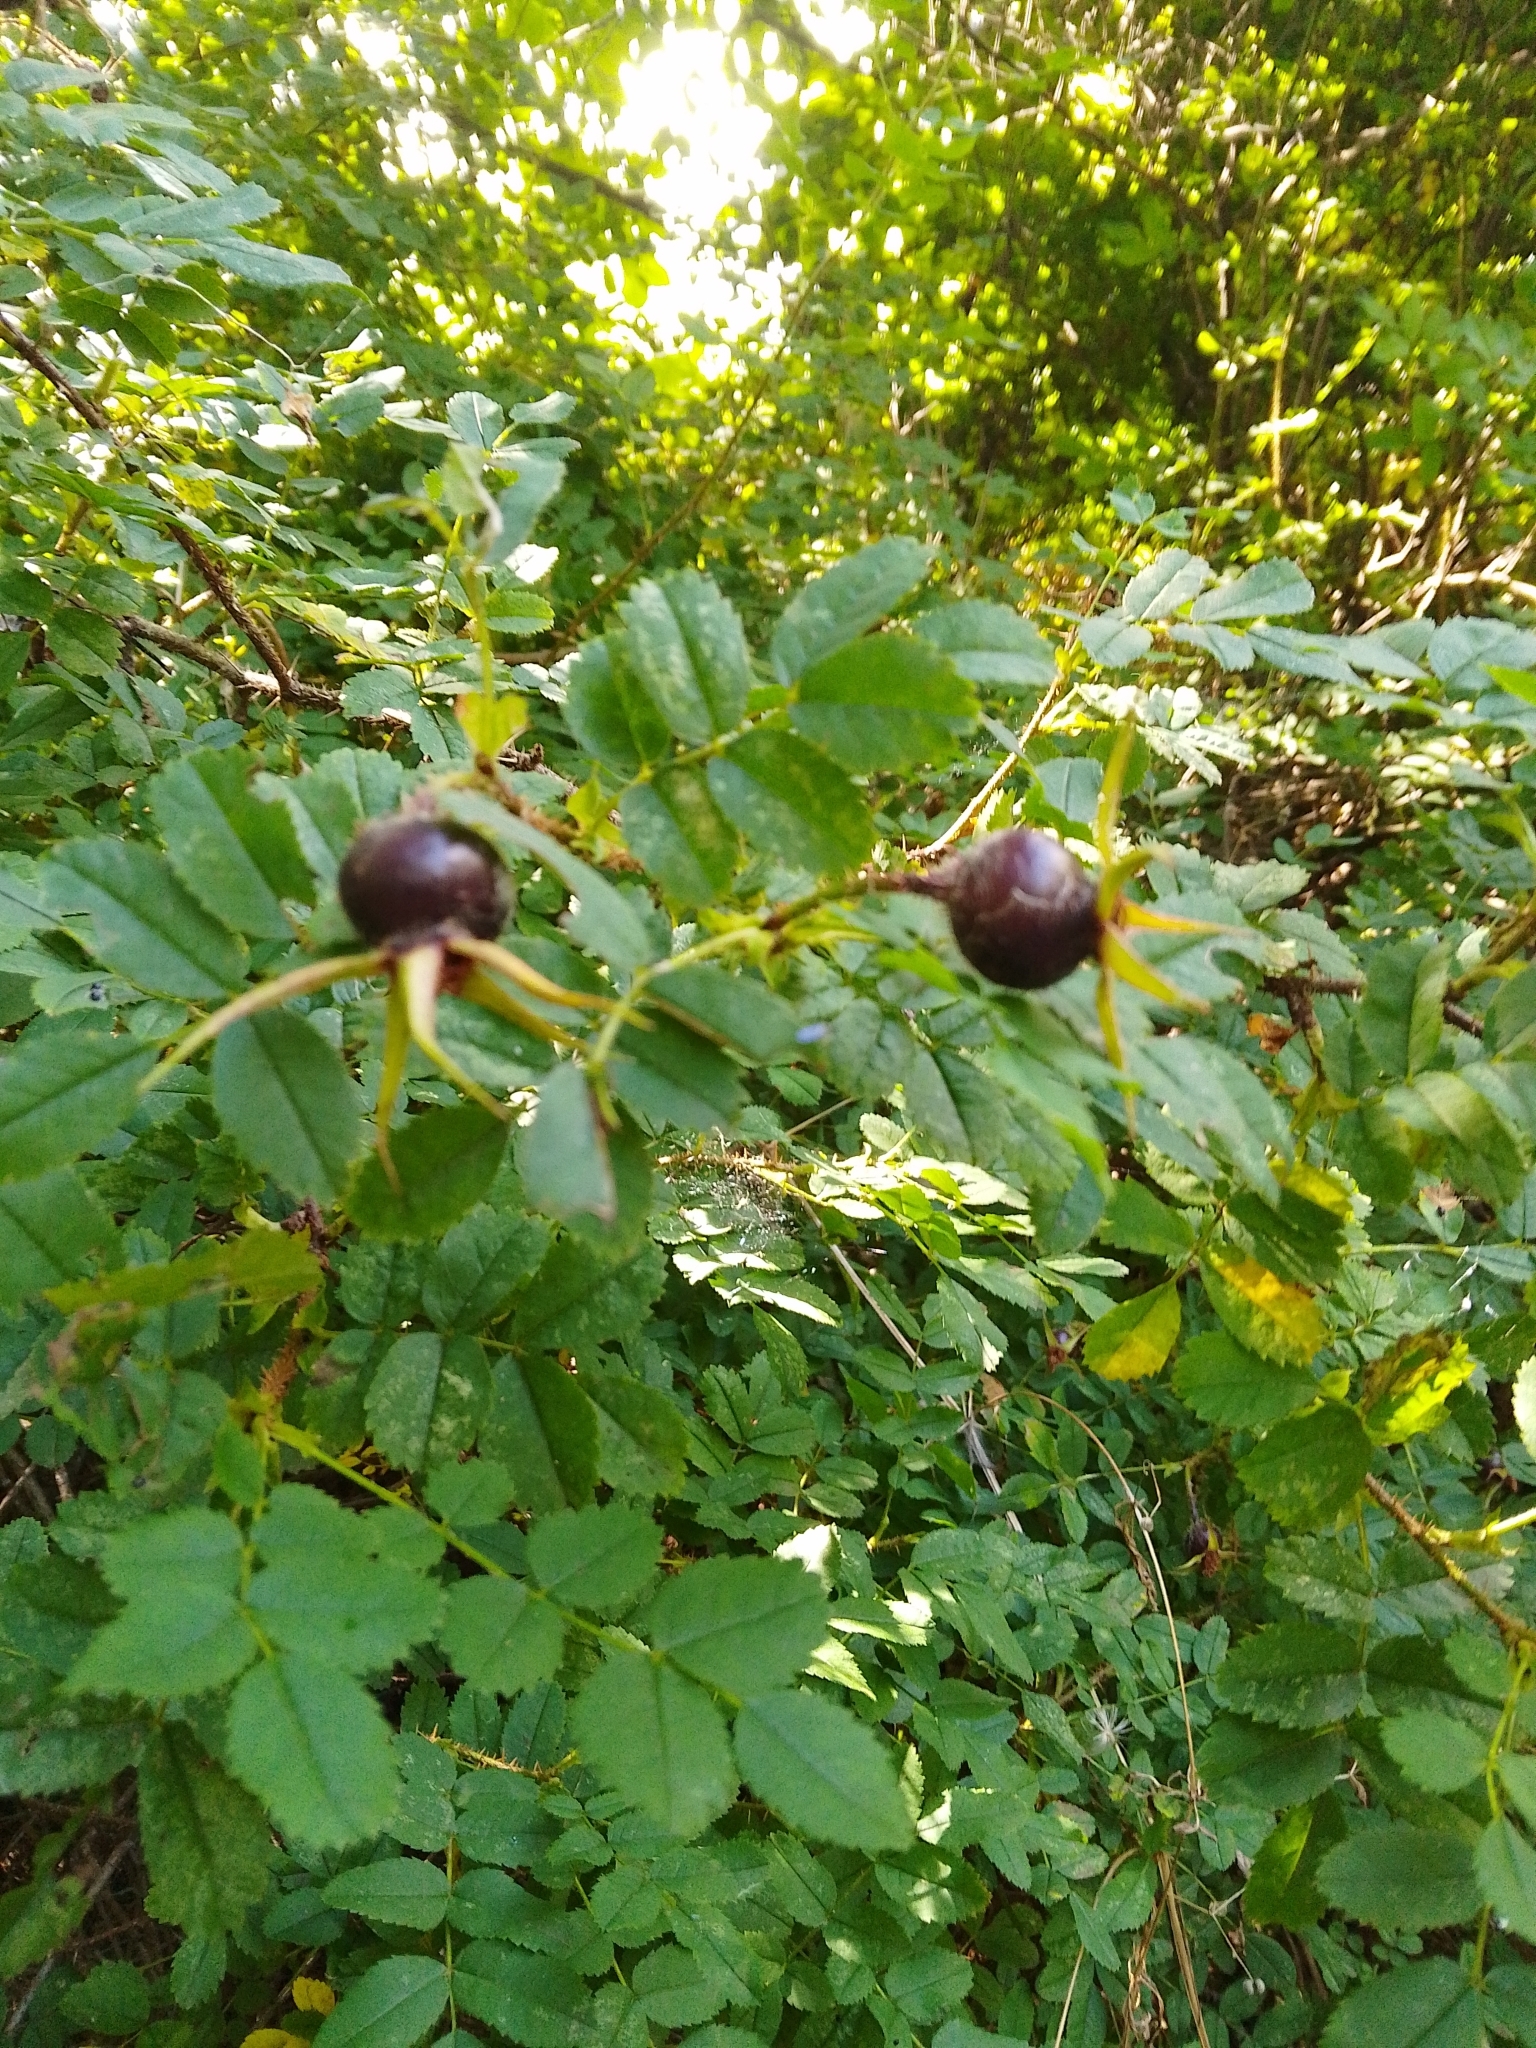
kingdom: Plantae
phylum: Tracheophyta
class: Magnoliopsida
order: Rosales
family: Rosaceae
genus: Rosa
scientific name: Rosa spinosissima
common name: Burnet rose
